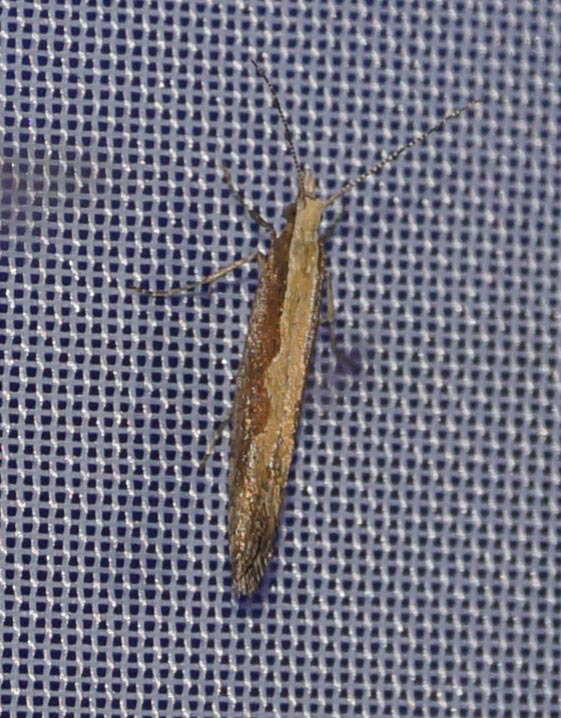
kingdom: Animalia
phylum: Arthropoda
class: Insecta
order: Lepidoptera
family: Plutellidae
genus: Plutella
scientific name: Plutella xylostella
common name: Diamond-back moth
